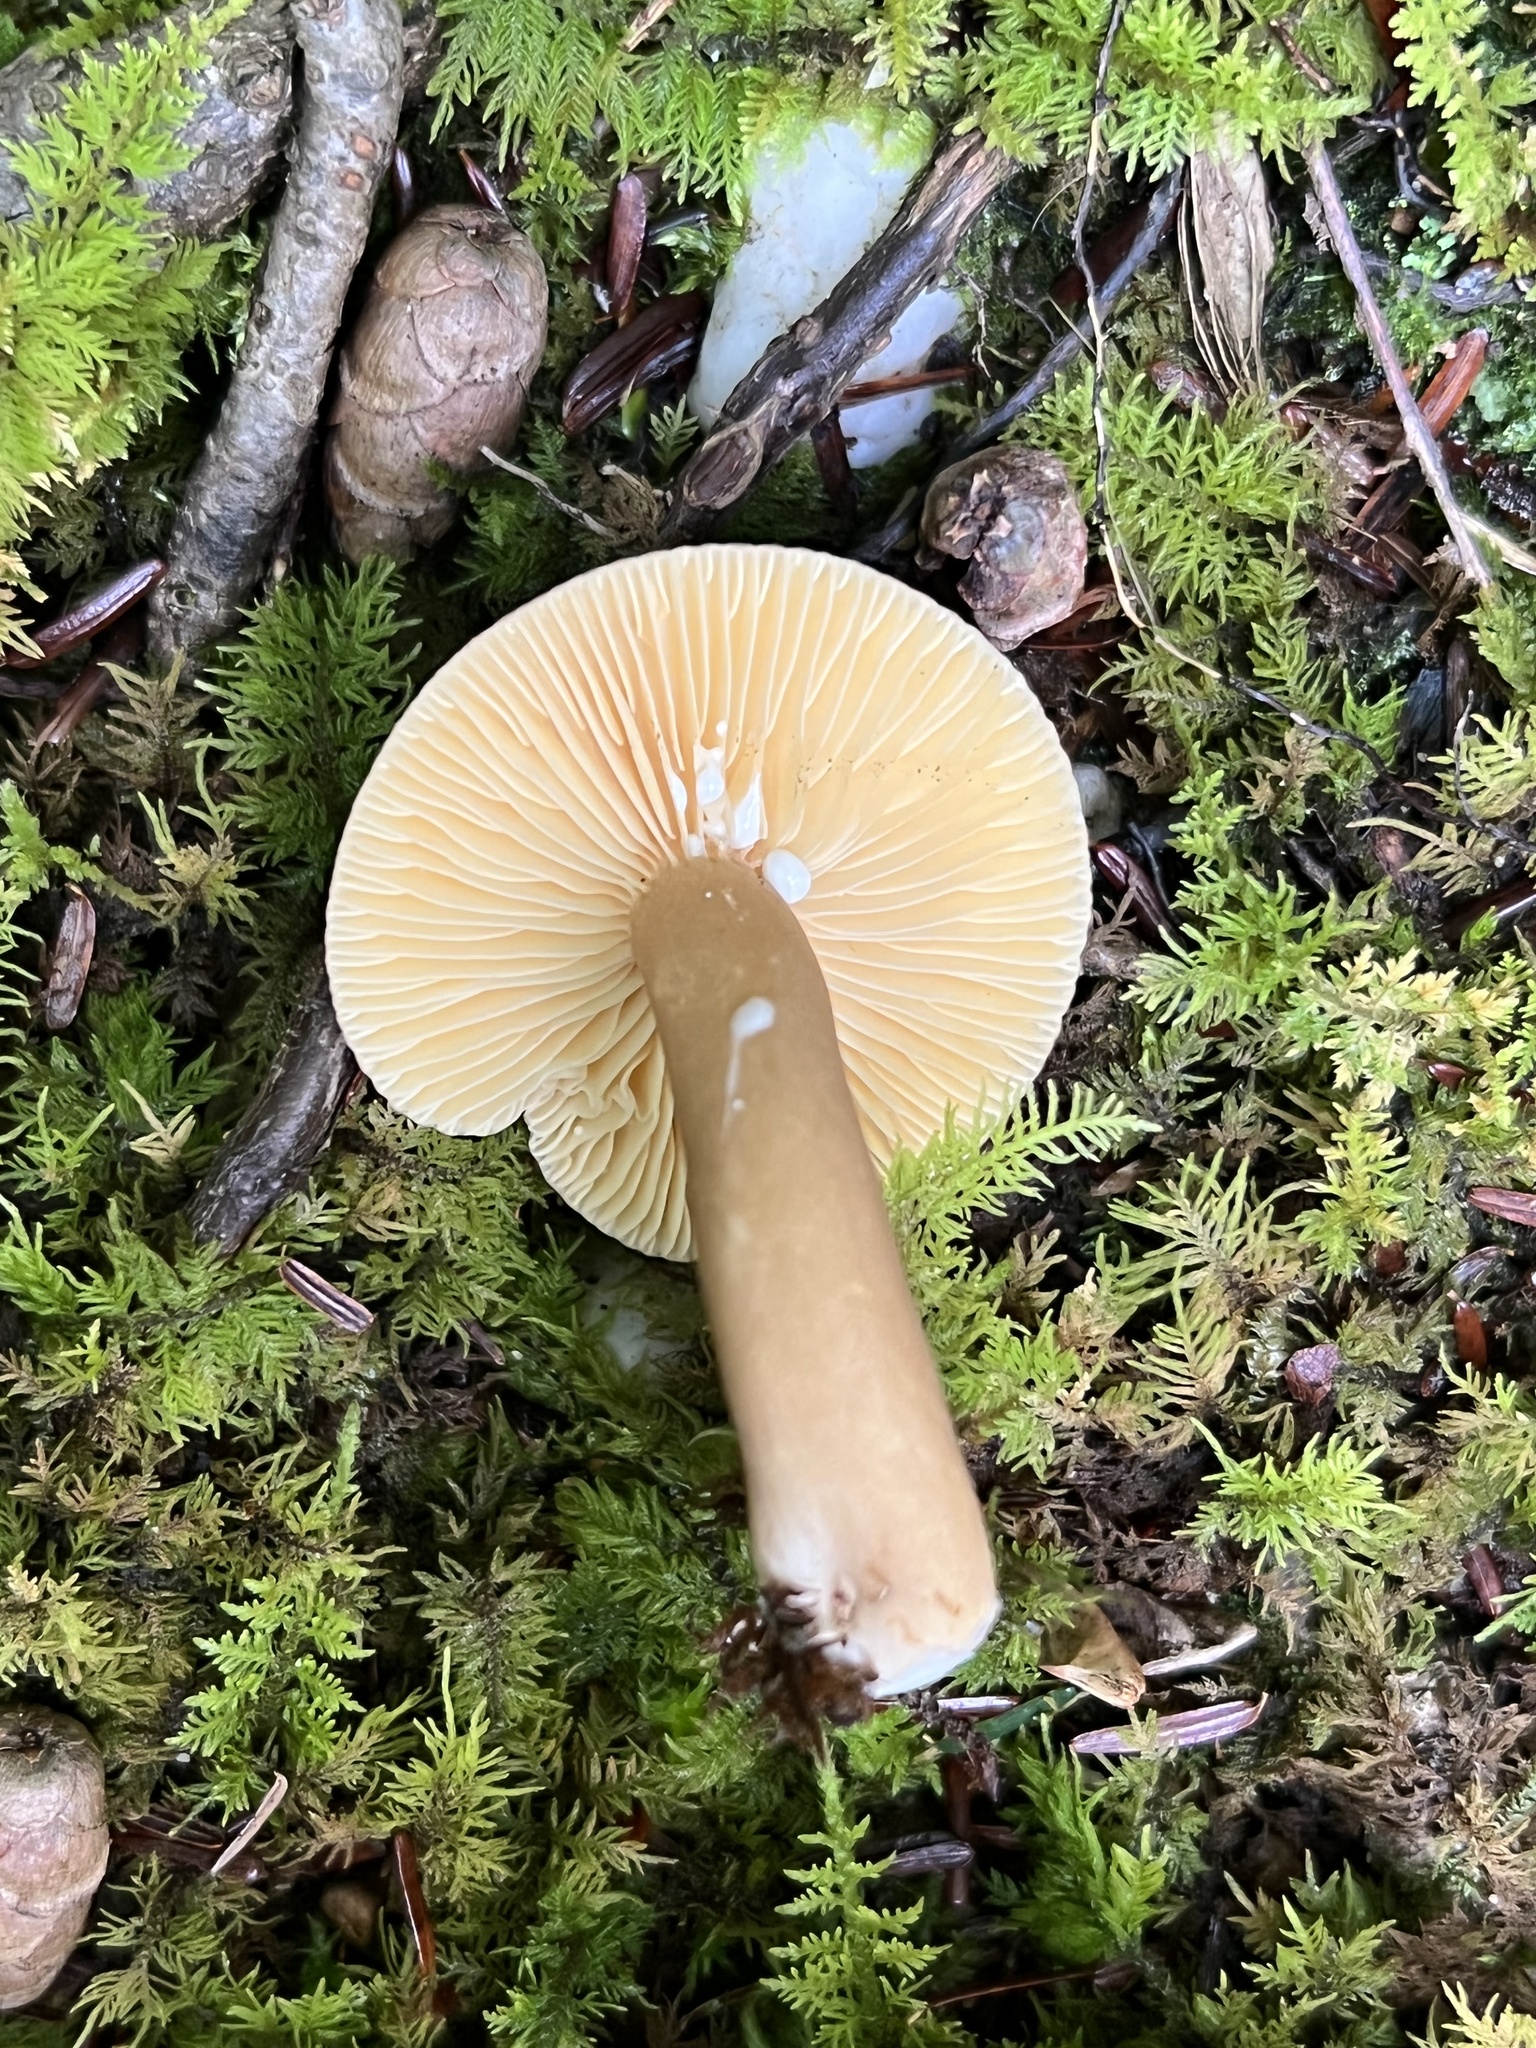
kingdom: Fungi
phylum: Basidiomycota
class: Agaricomycetes
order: Russulales
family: Russulaceae
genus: Lactarius
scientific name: Lactarius lignyotus
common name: Velvet milkcap
